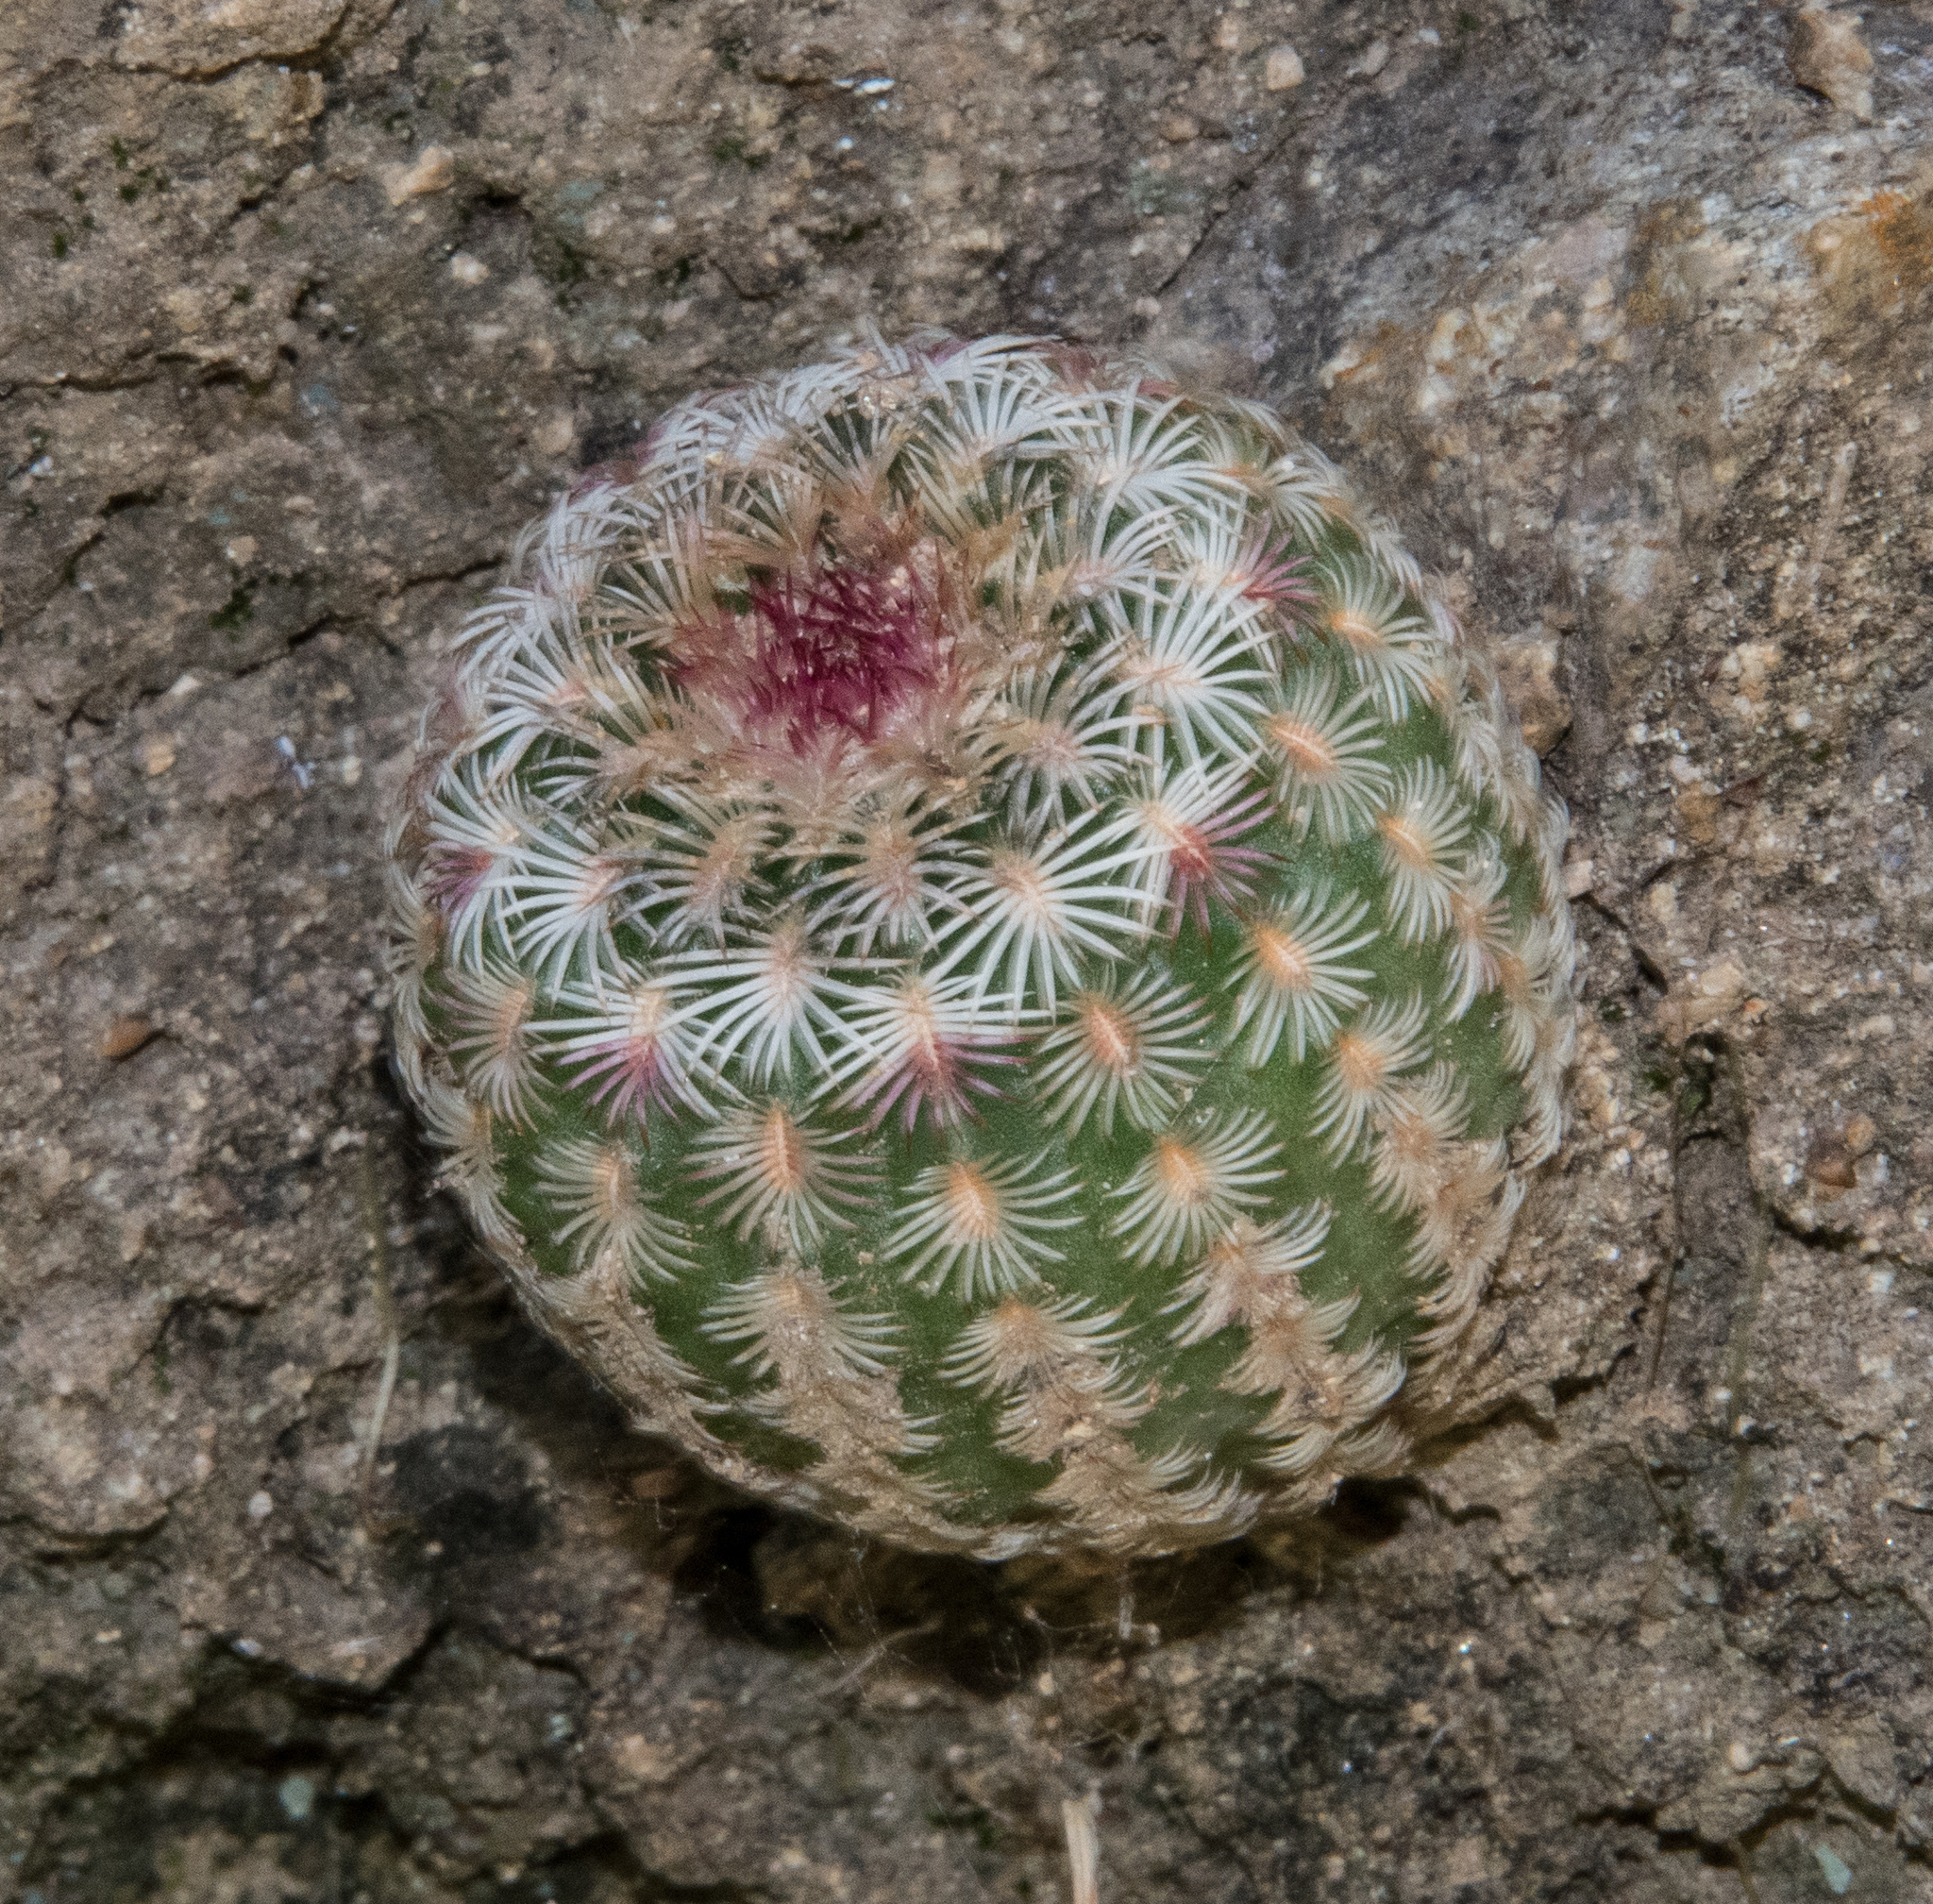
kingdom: Plantae
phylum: Tracheophyta
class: Magnoliopsida
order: Caryophyllales
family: Cactaceae
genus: Echinocereus
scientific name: Echinocereus rigidissimus
